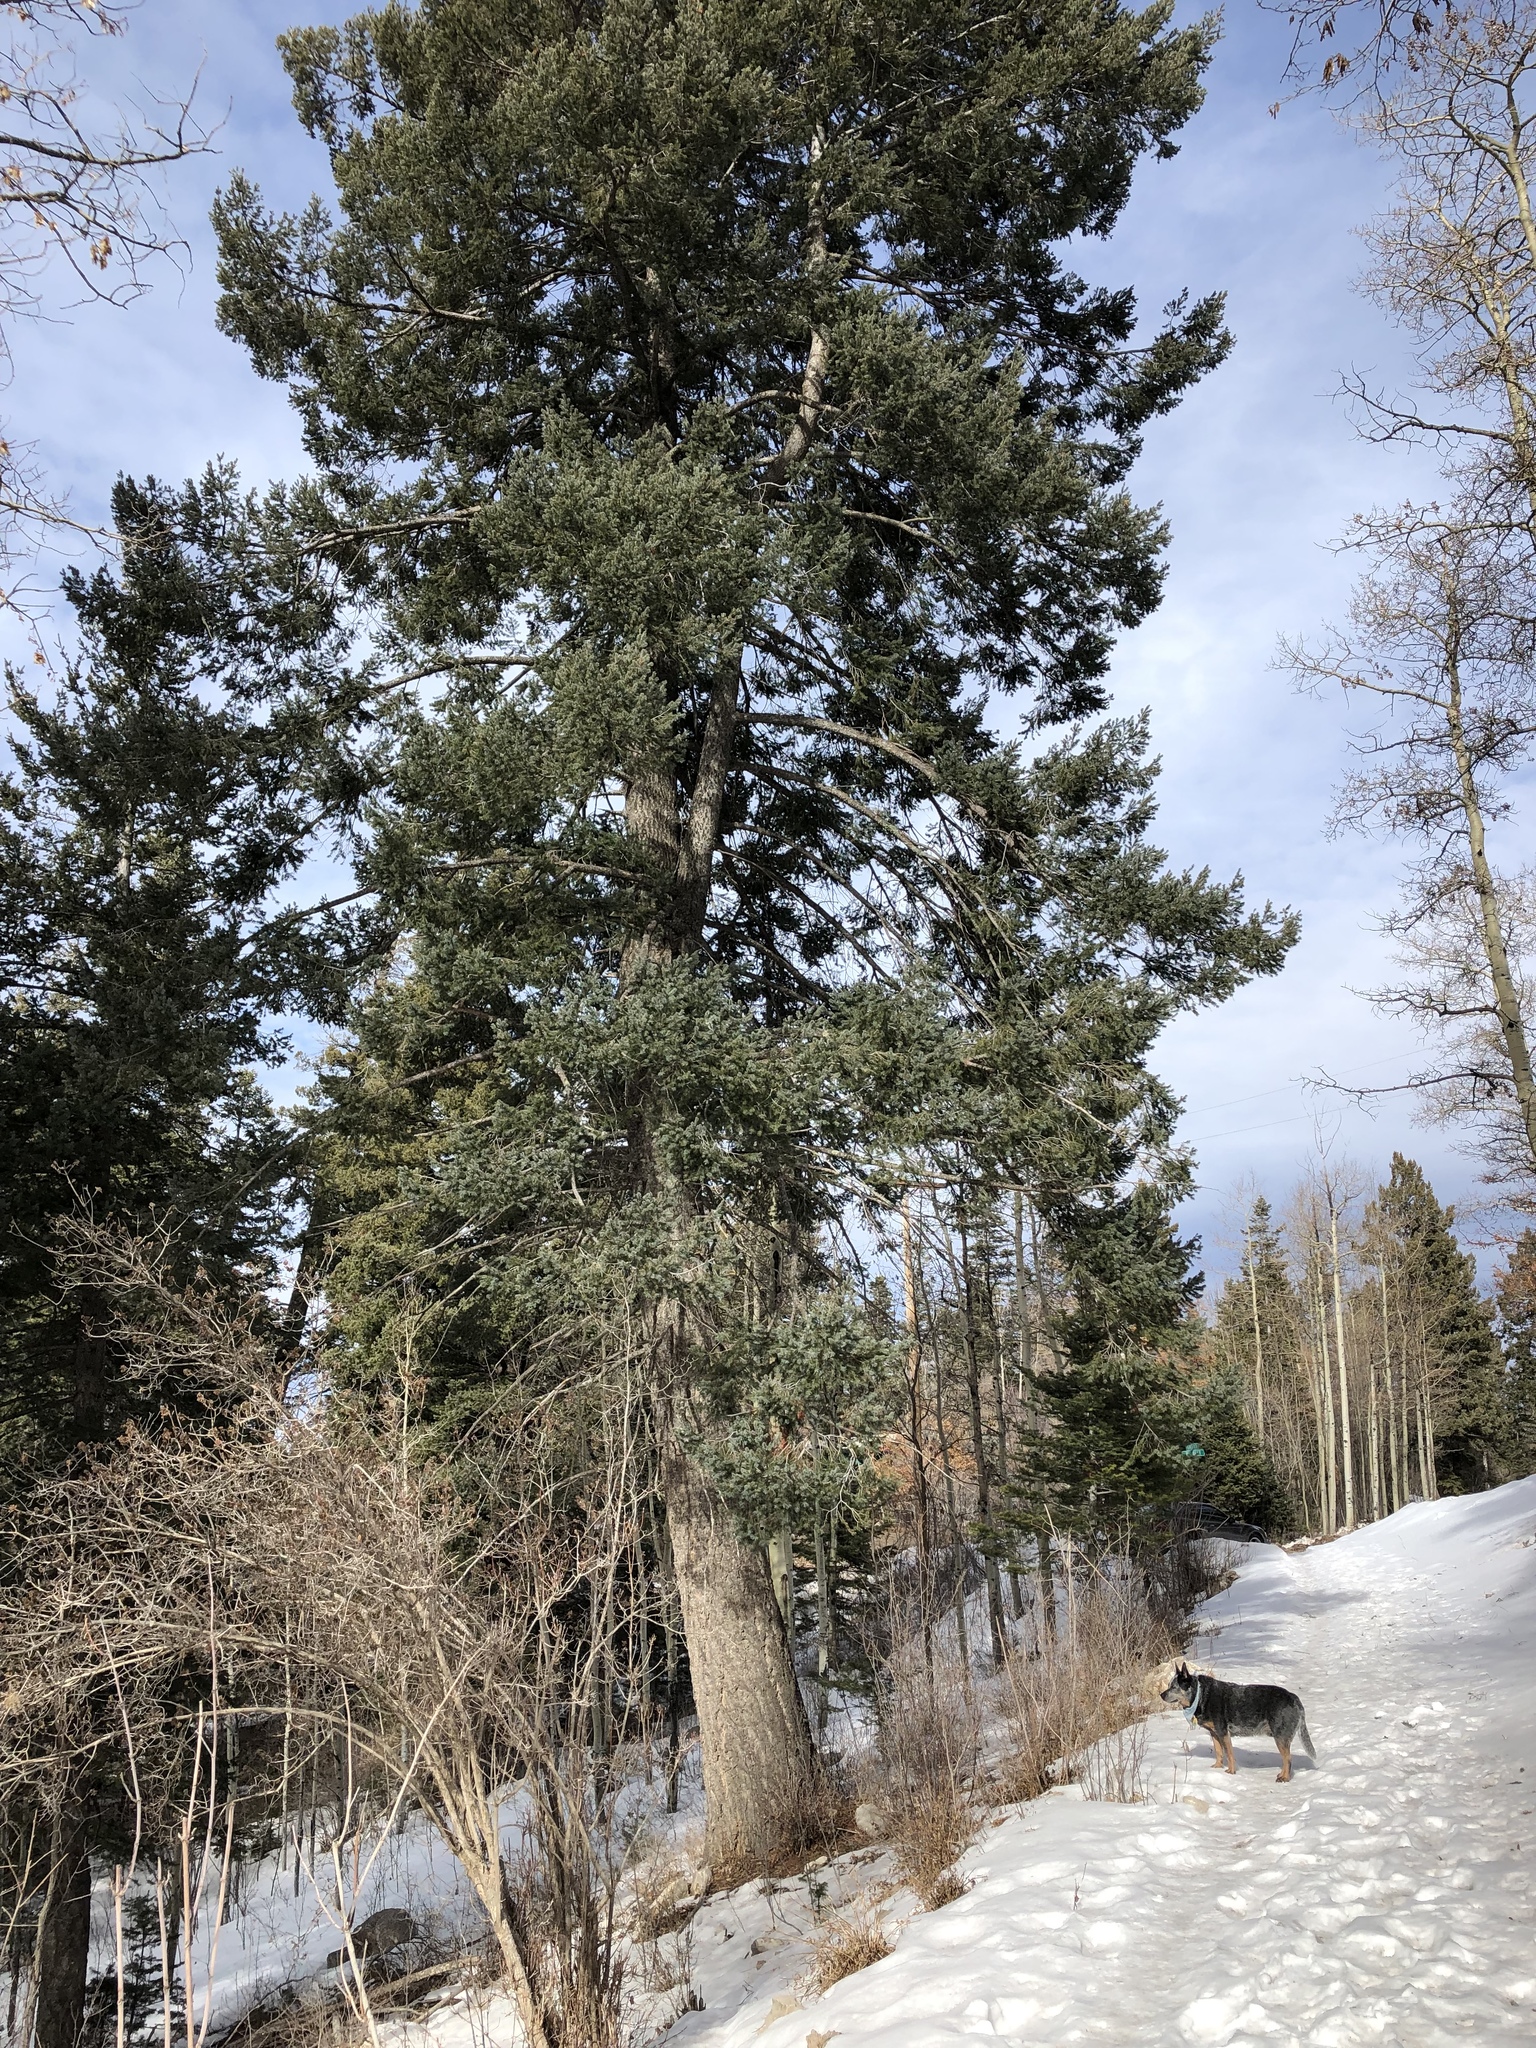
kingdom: Plantae
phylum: Tracheophyta
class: Pinopsida
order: Pinales
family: Pinaceae
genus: Pseudotsuga
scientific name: Pseudotsuga menziesii
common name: Douglas fir
